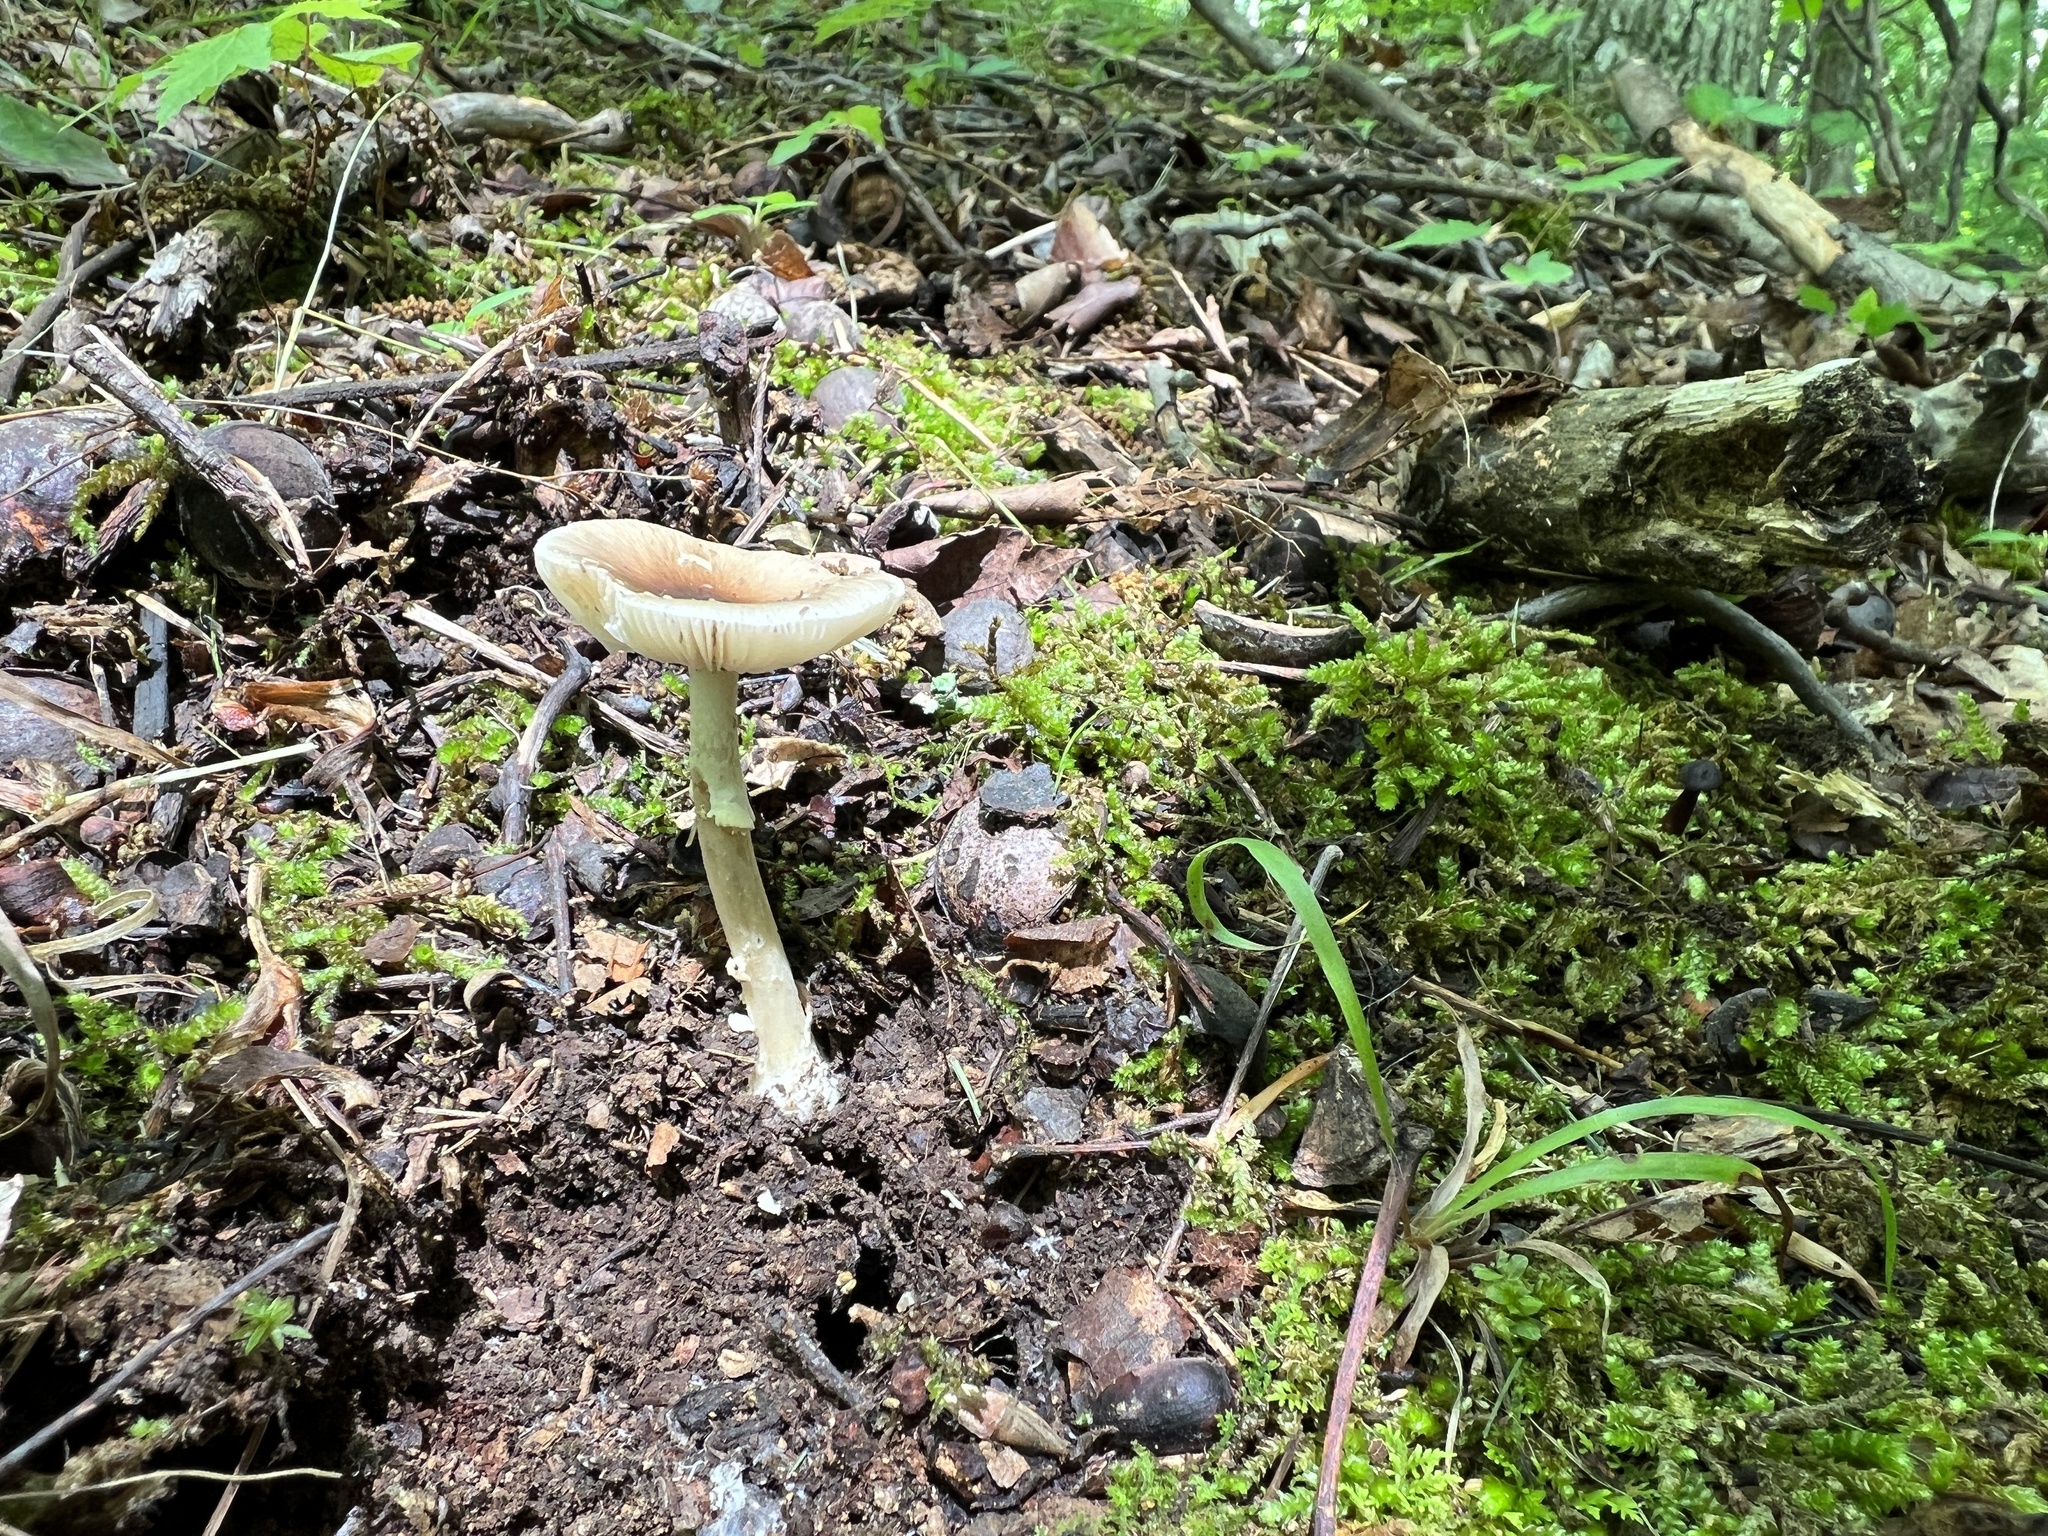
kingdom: Fungi
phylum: Basidiomycota
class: Agaricomycetes
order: Agaricales
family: Amanitaceae
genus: Amanita
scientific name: Amanita solaniolens
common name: Old potato amanita
